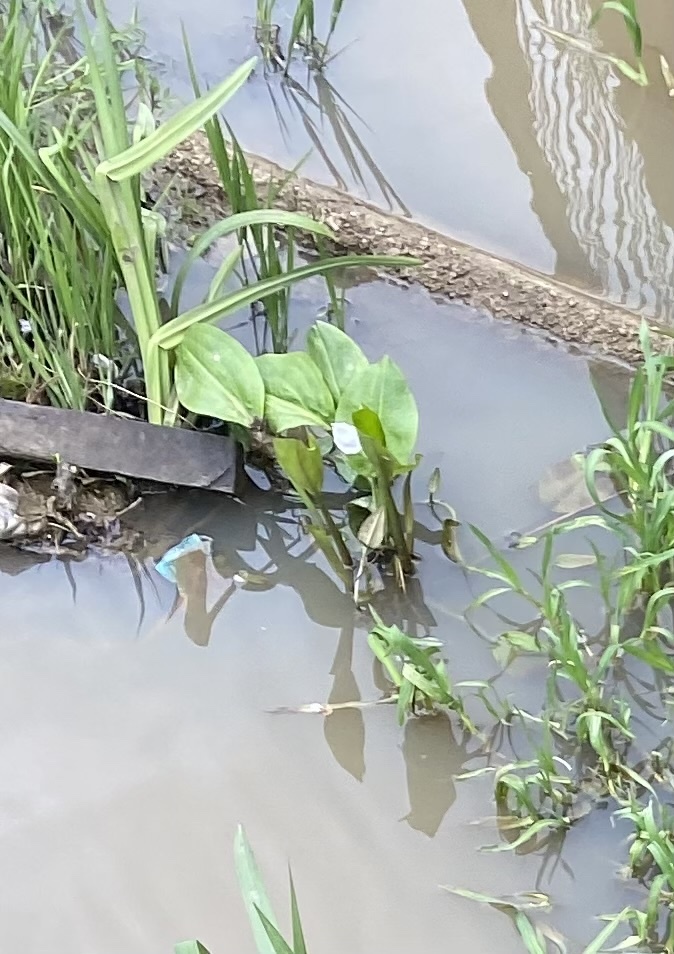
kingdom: Plantae
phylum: Tracheophyta
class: Liliopsida
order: Alismatales
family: Alismataceae
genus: Alisma
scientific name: Alisma plantago-aquatica
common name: Water-plantain
